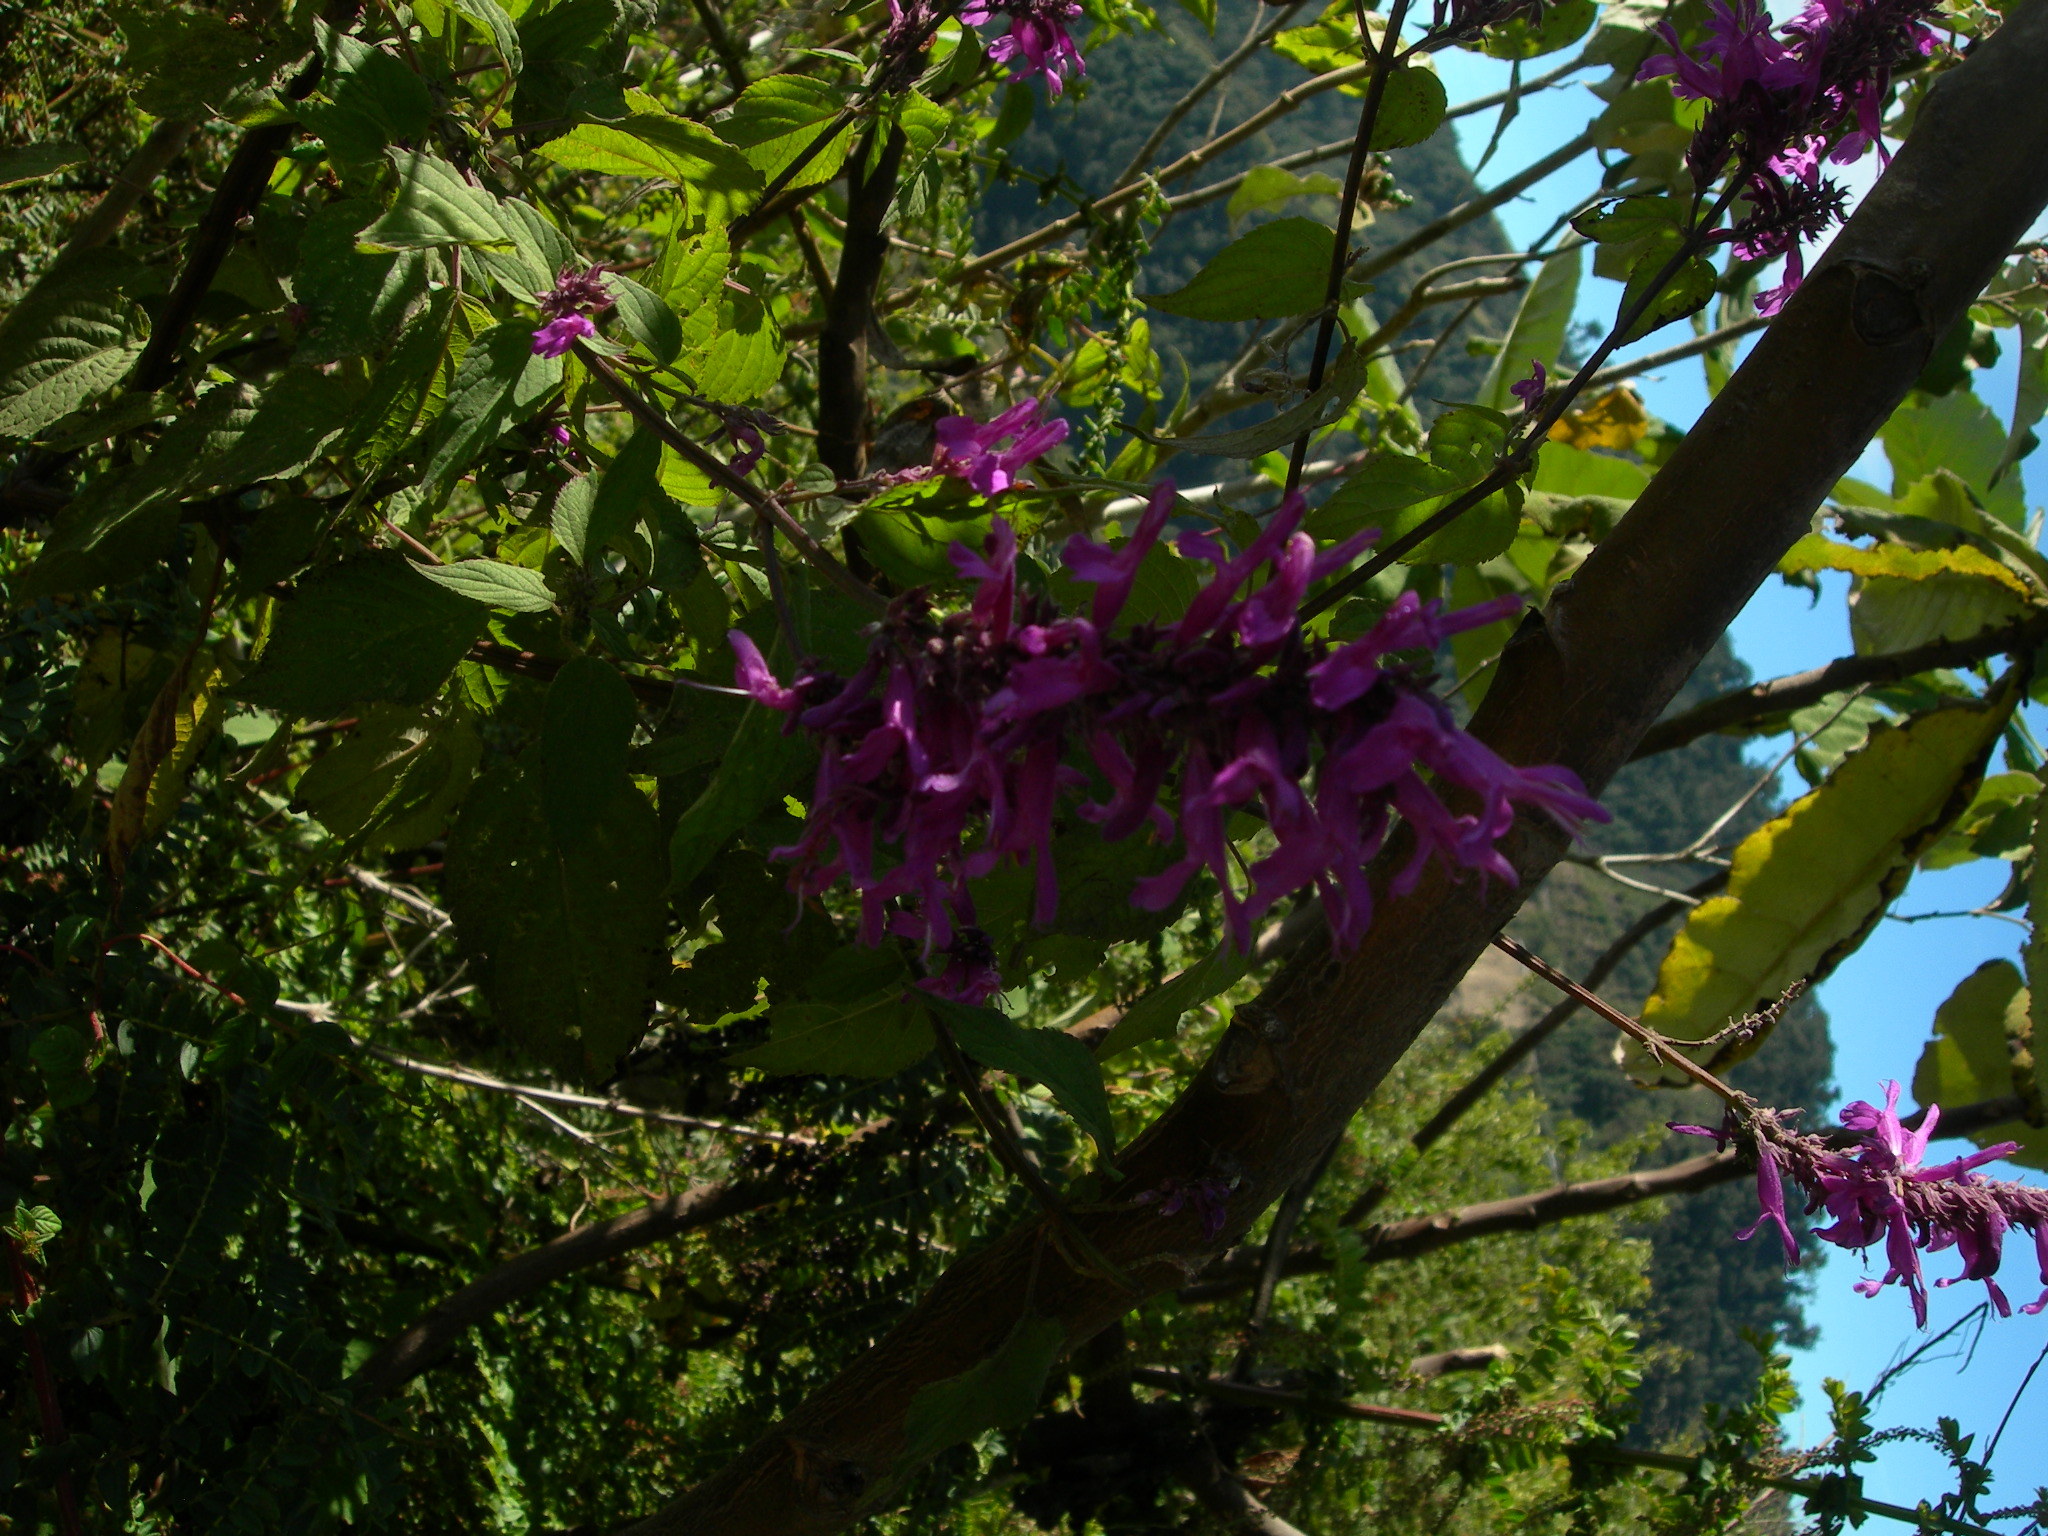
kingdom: Plantae
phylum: Tracheophyta
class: Magnoliopsida
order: Lamiales
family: Lamiaceae
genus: Salvia
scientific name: Salvia purpurea
